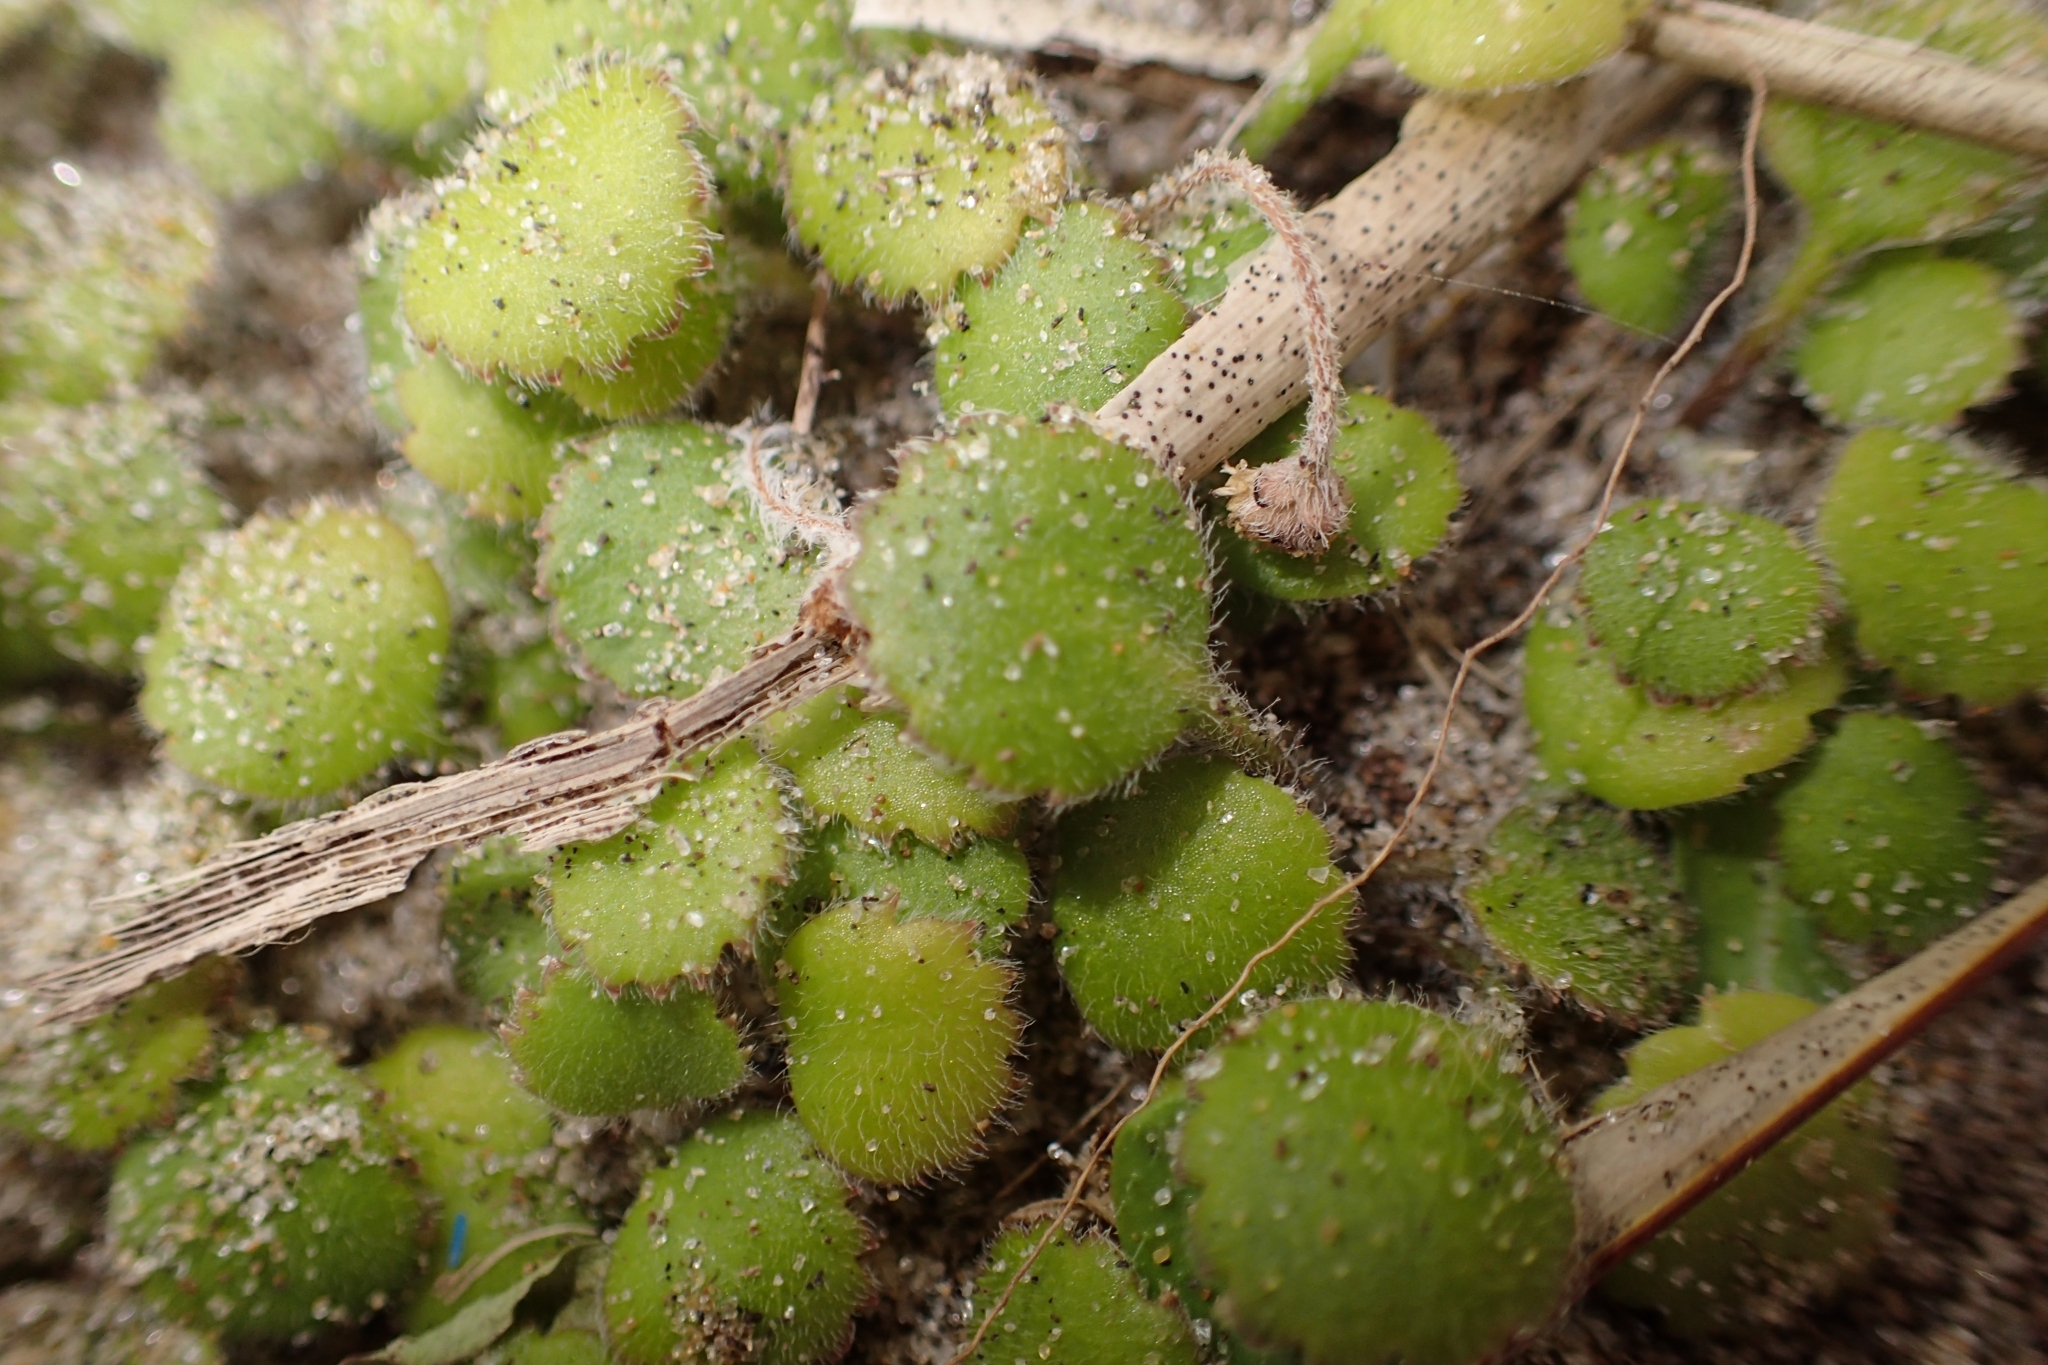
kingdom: Plantae
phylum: Tracheophyta
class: Magnoliopsida
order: Asterales
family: Asteraceae
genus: Leptinella
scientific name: Leptinella rotundata
